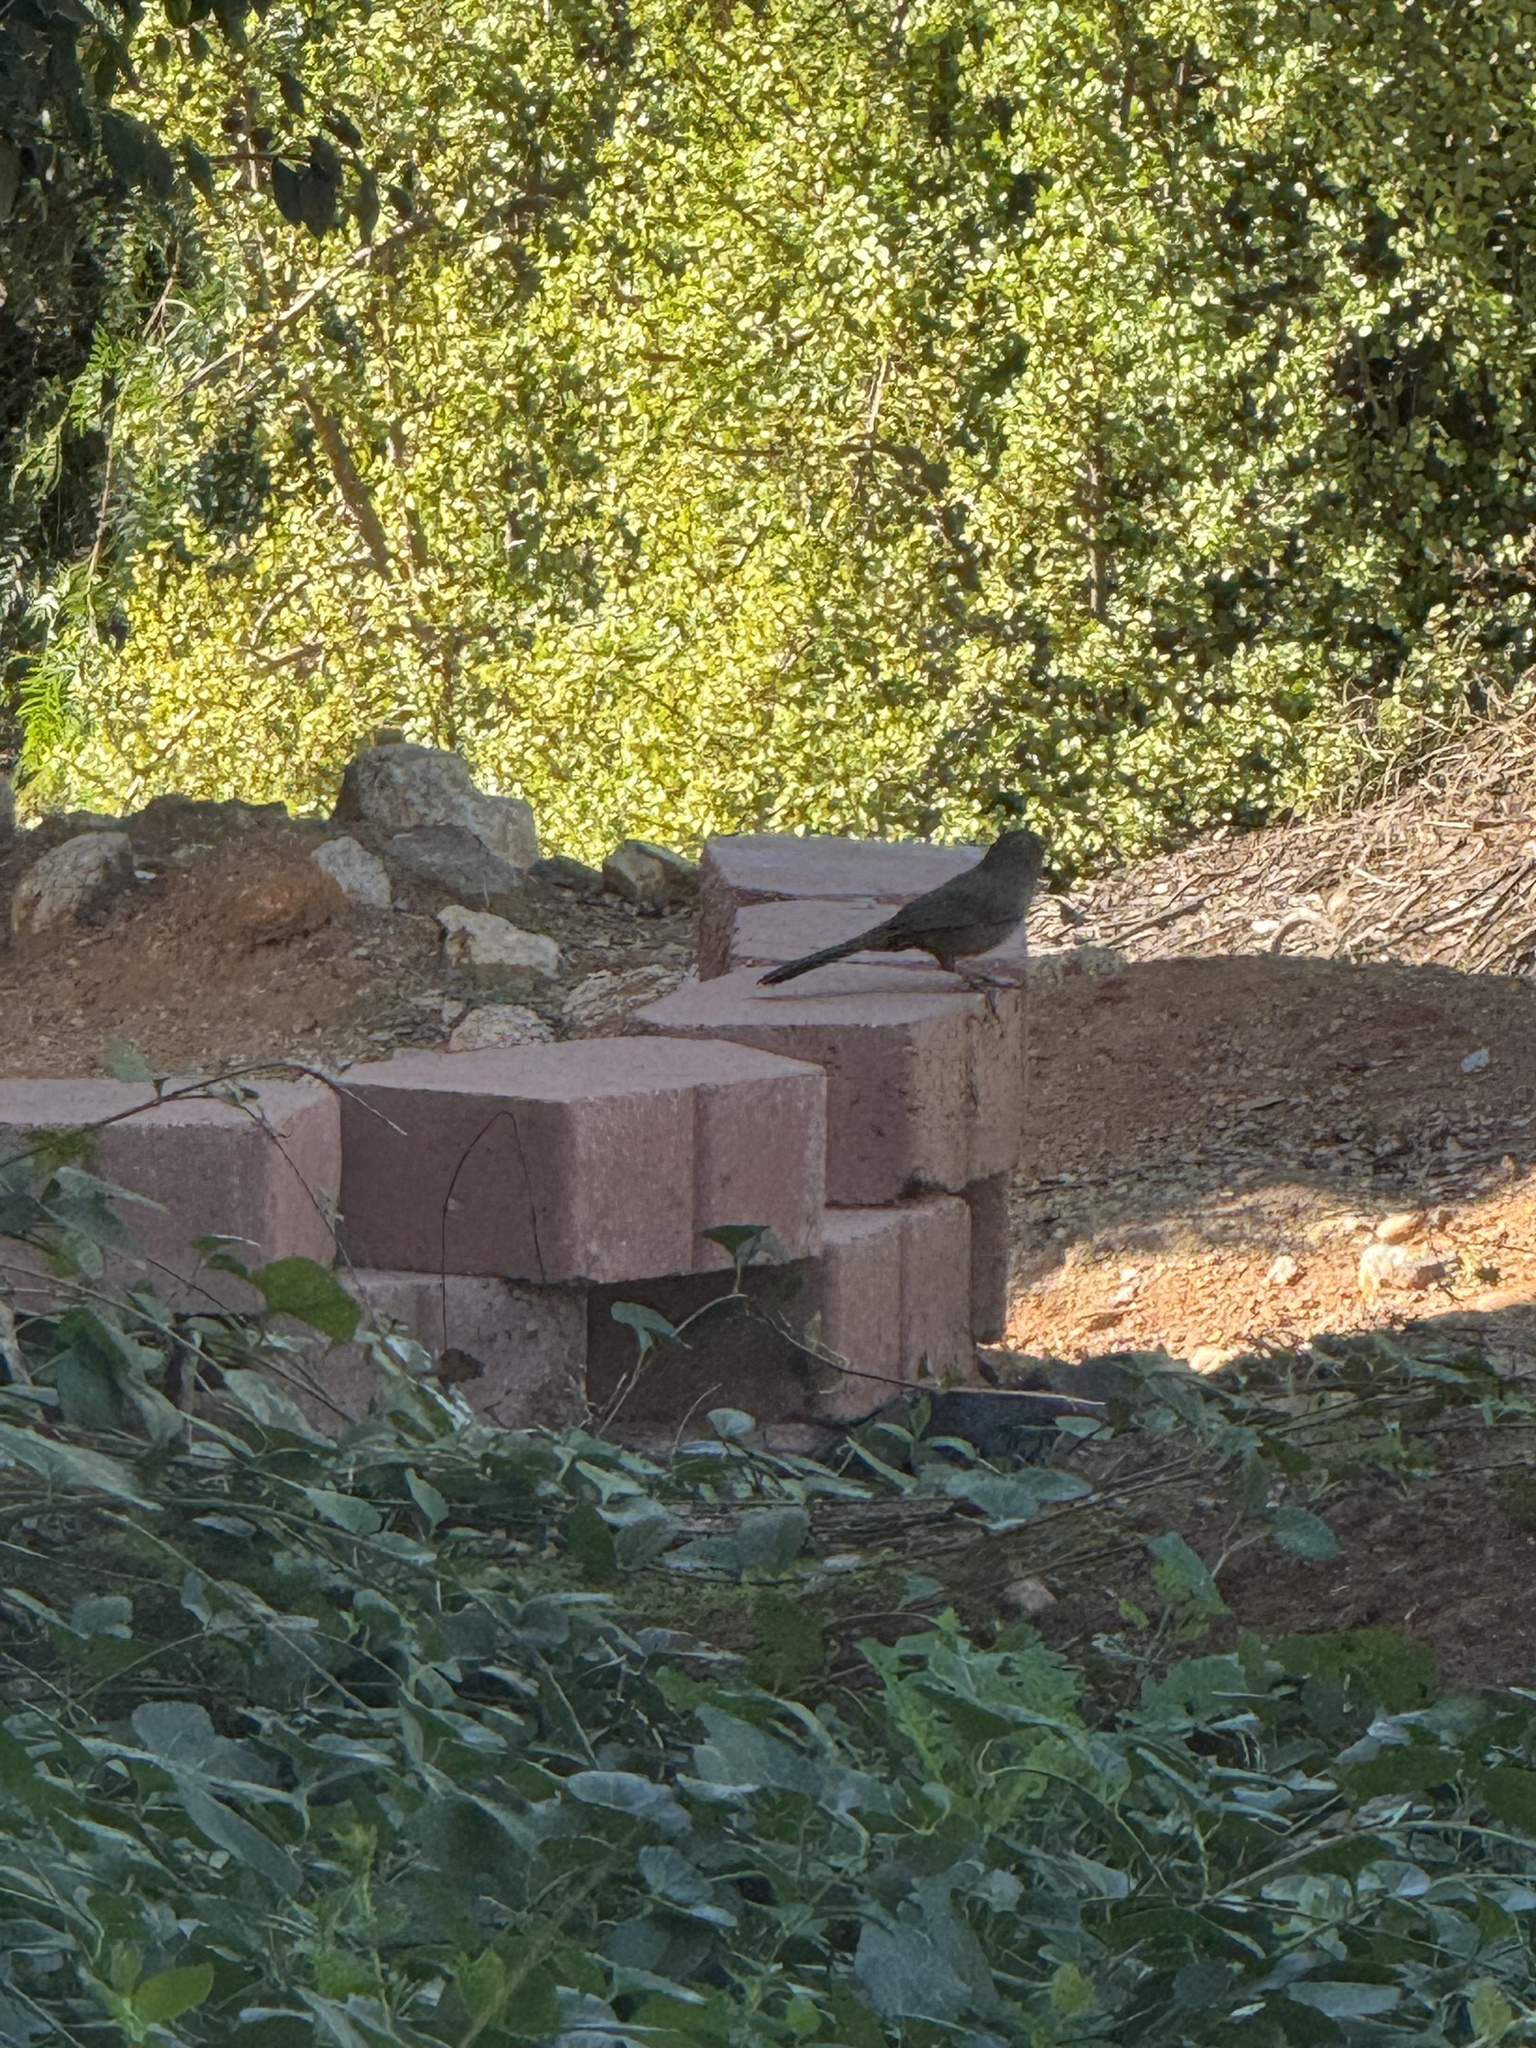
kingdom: Animalia
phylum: Chordata
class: Aves
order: Passeriformes
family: Passerellidae
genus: Melozone
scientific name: Melozone crissalis
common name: California towhee
